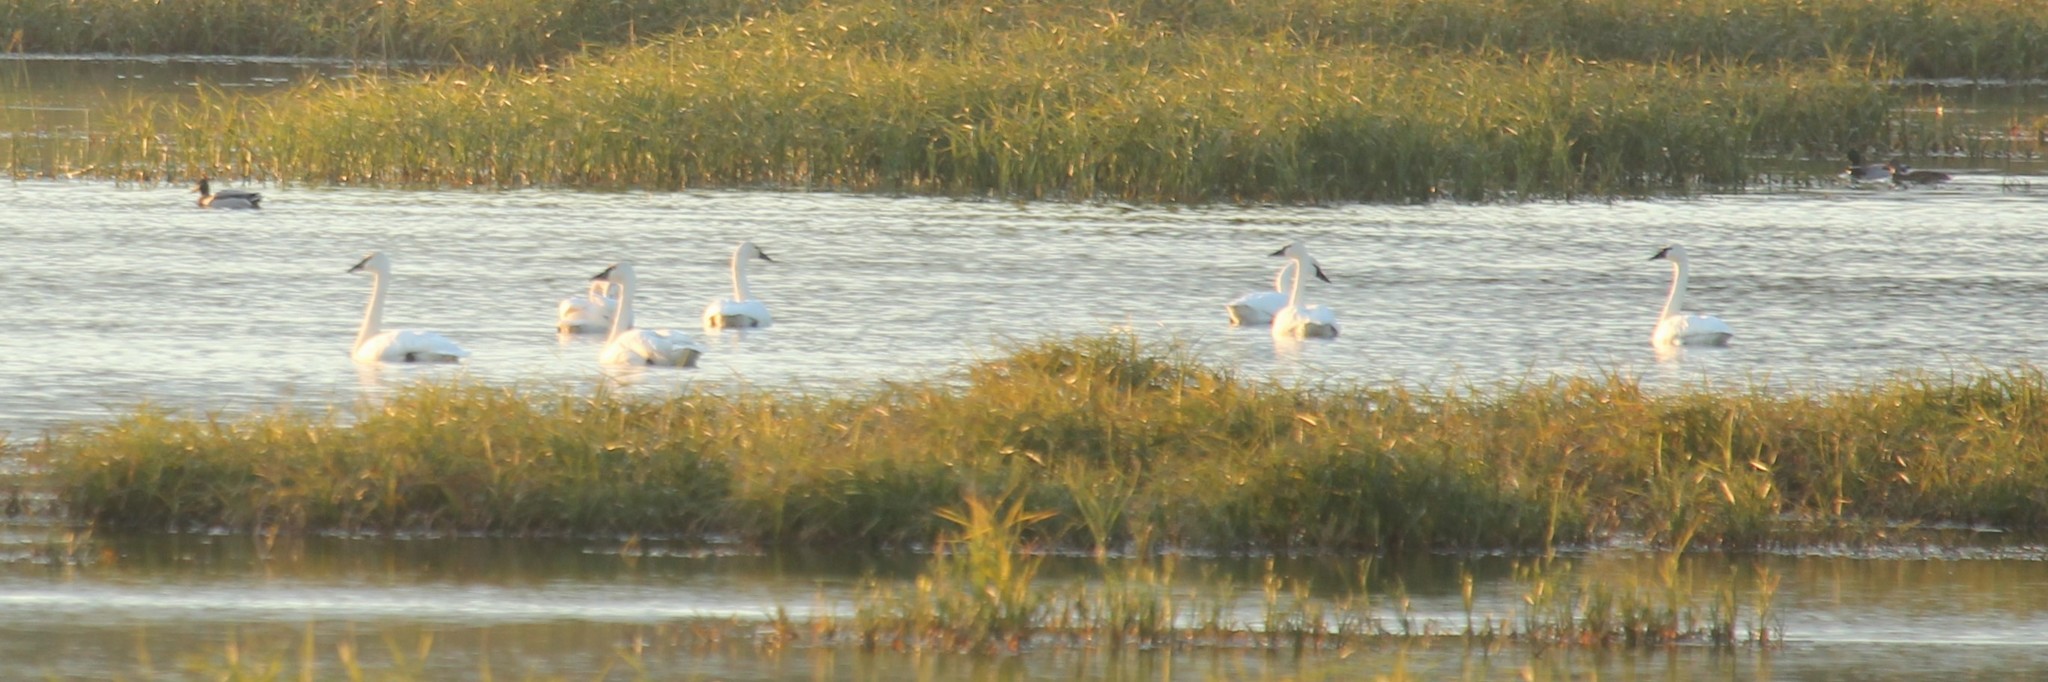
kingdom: Animalia
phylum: Chordata
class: Aves
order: Anseriformes
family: Anatidae
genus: Cygnus
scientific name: Cygnus buccinator
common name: Trumpeter swan
